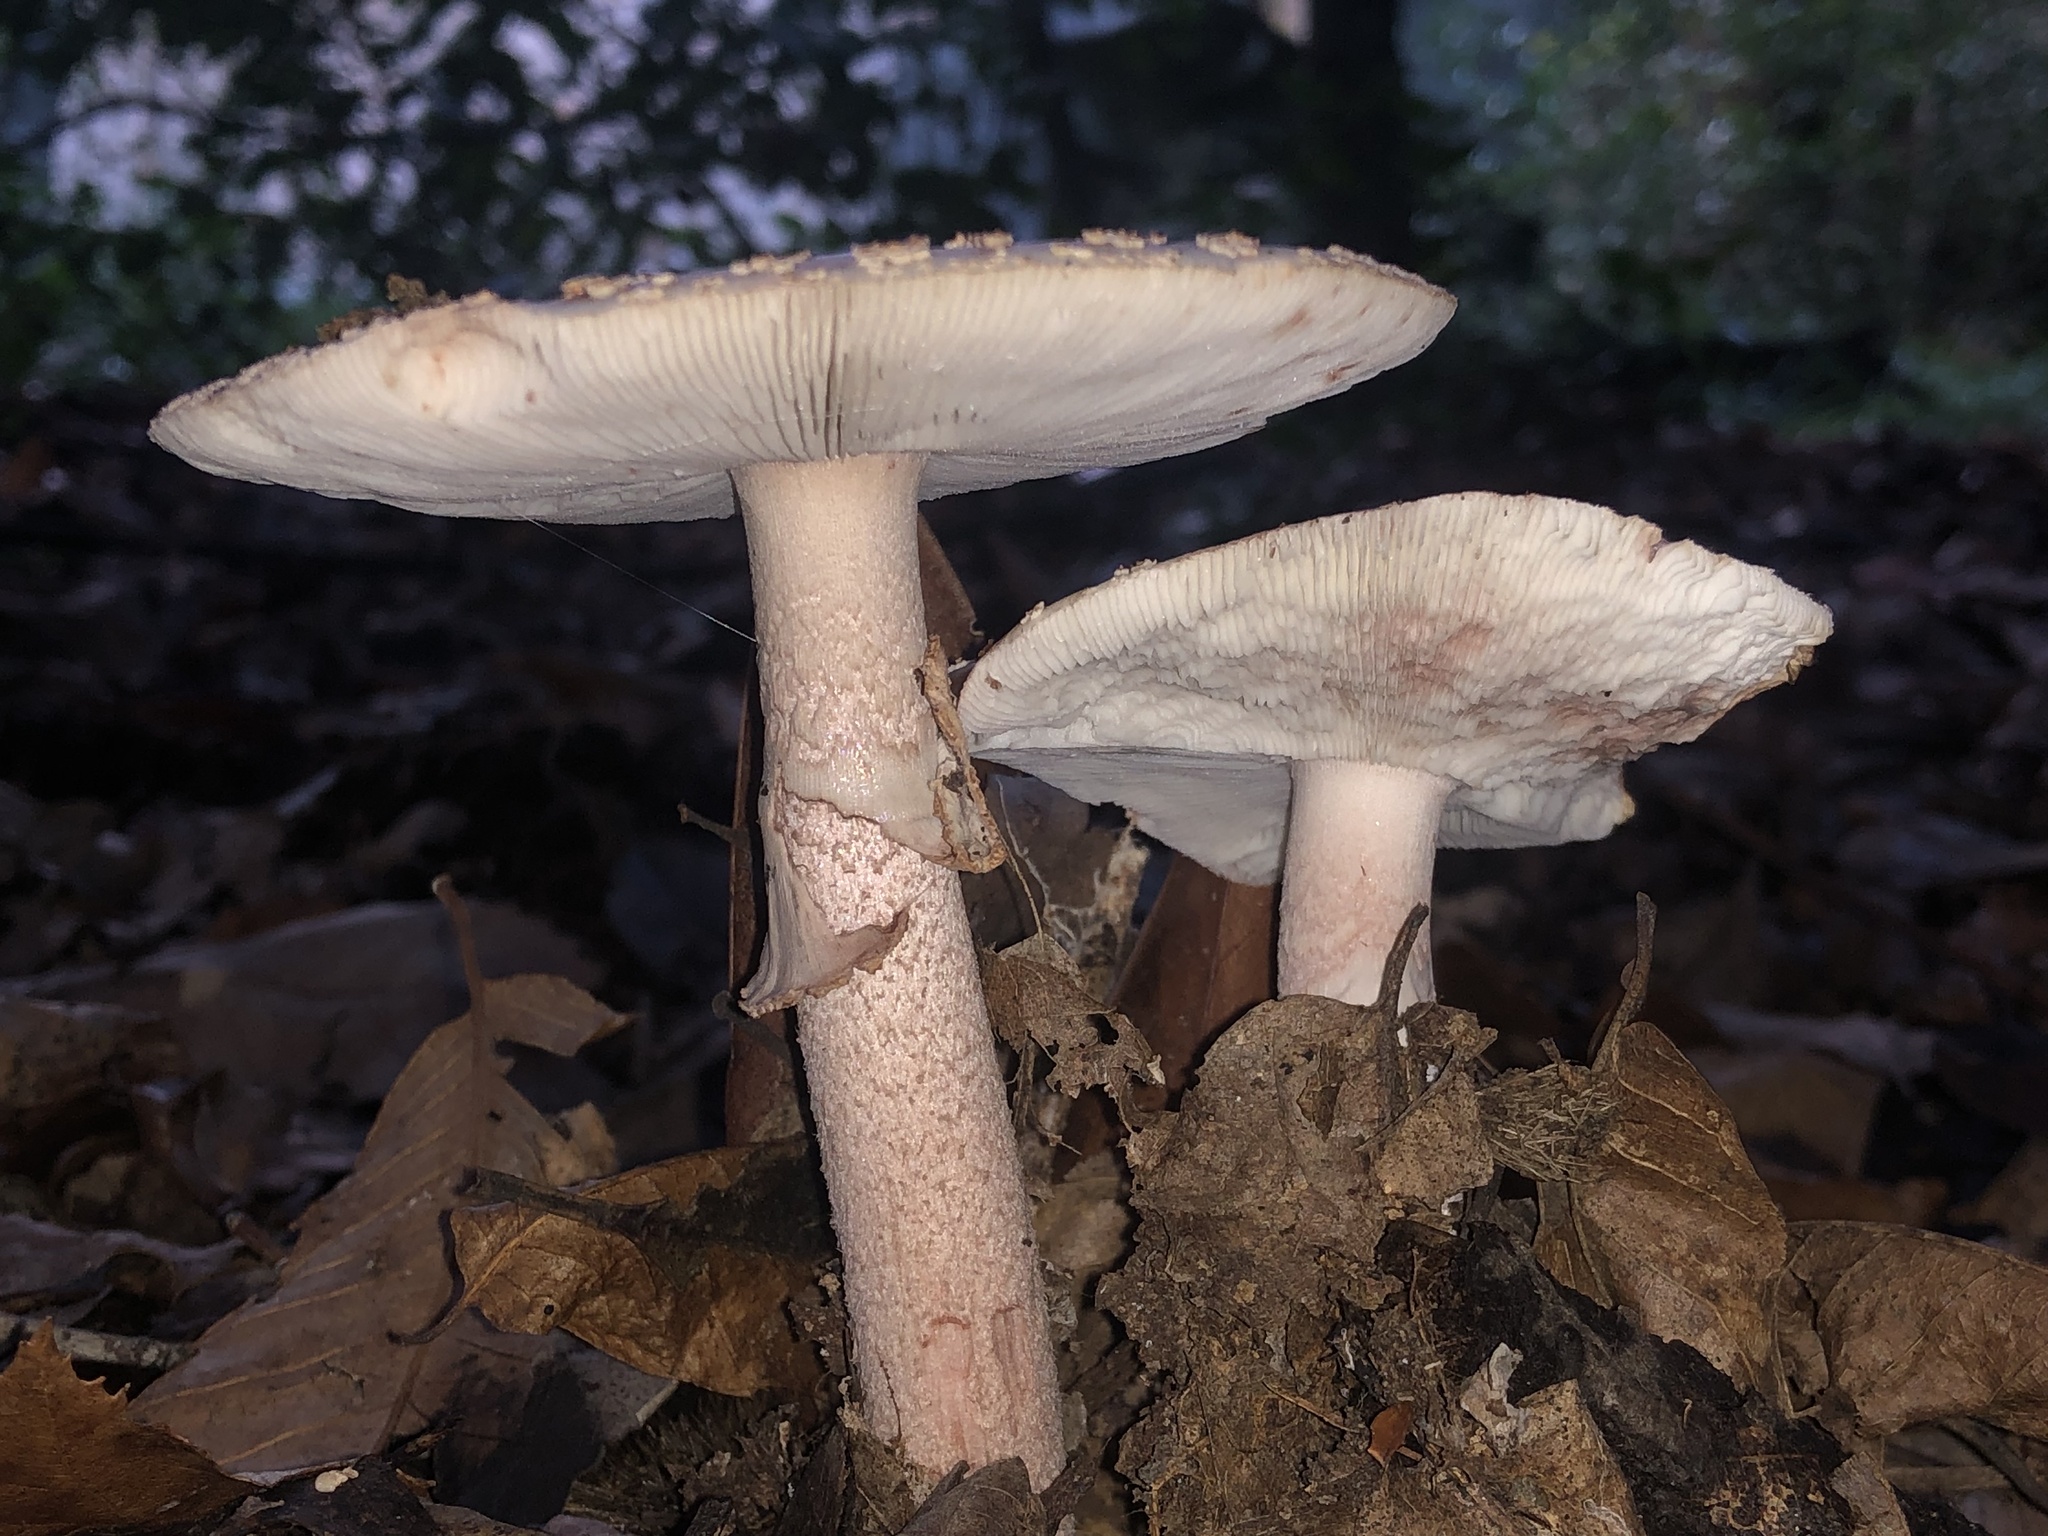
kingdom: Fungi
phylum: Basidiomycota
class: Agaricomycetes
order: Agaricales
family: Amanitaceae
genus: Amanita
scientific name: Amanita rubescens
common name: Blusher
